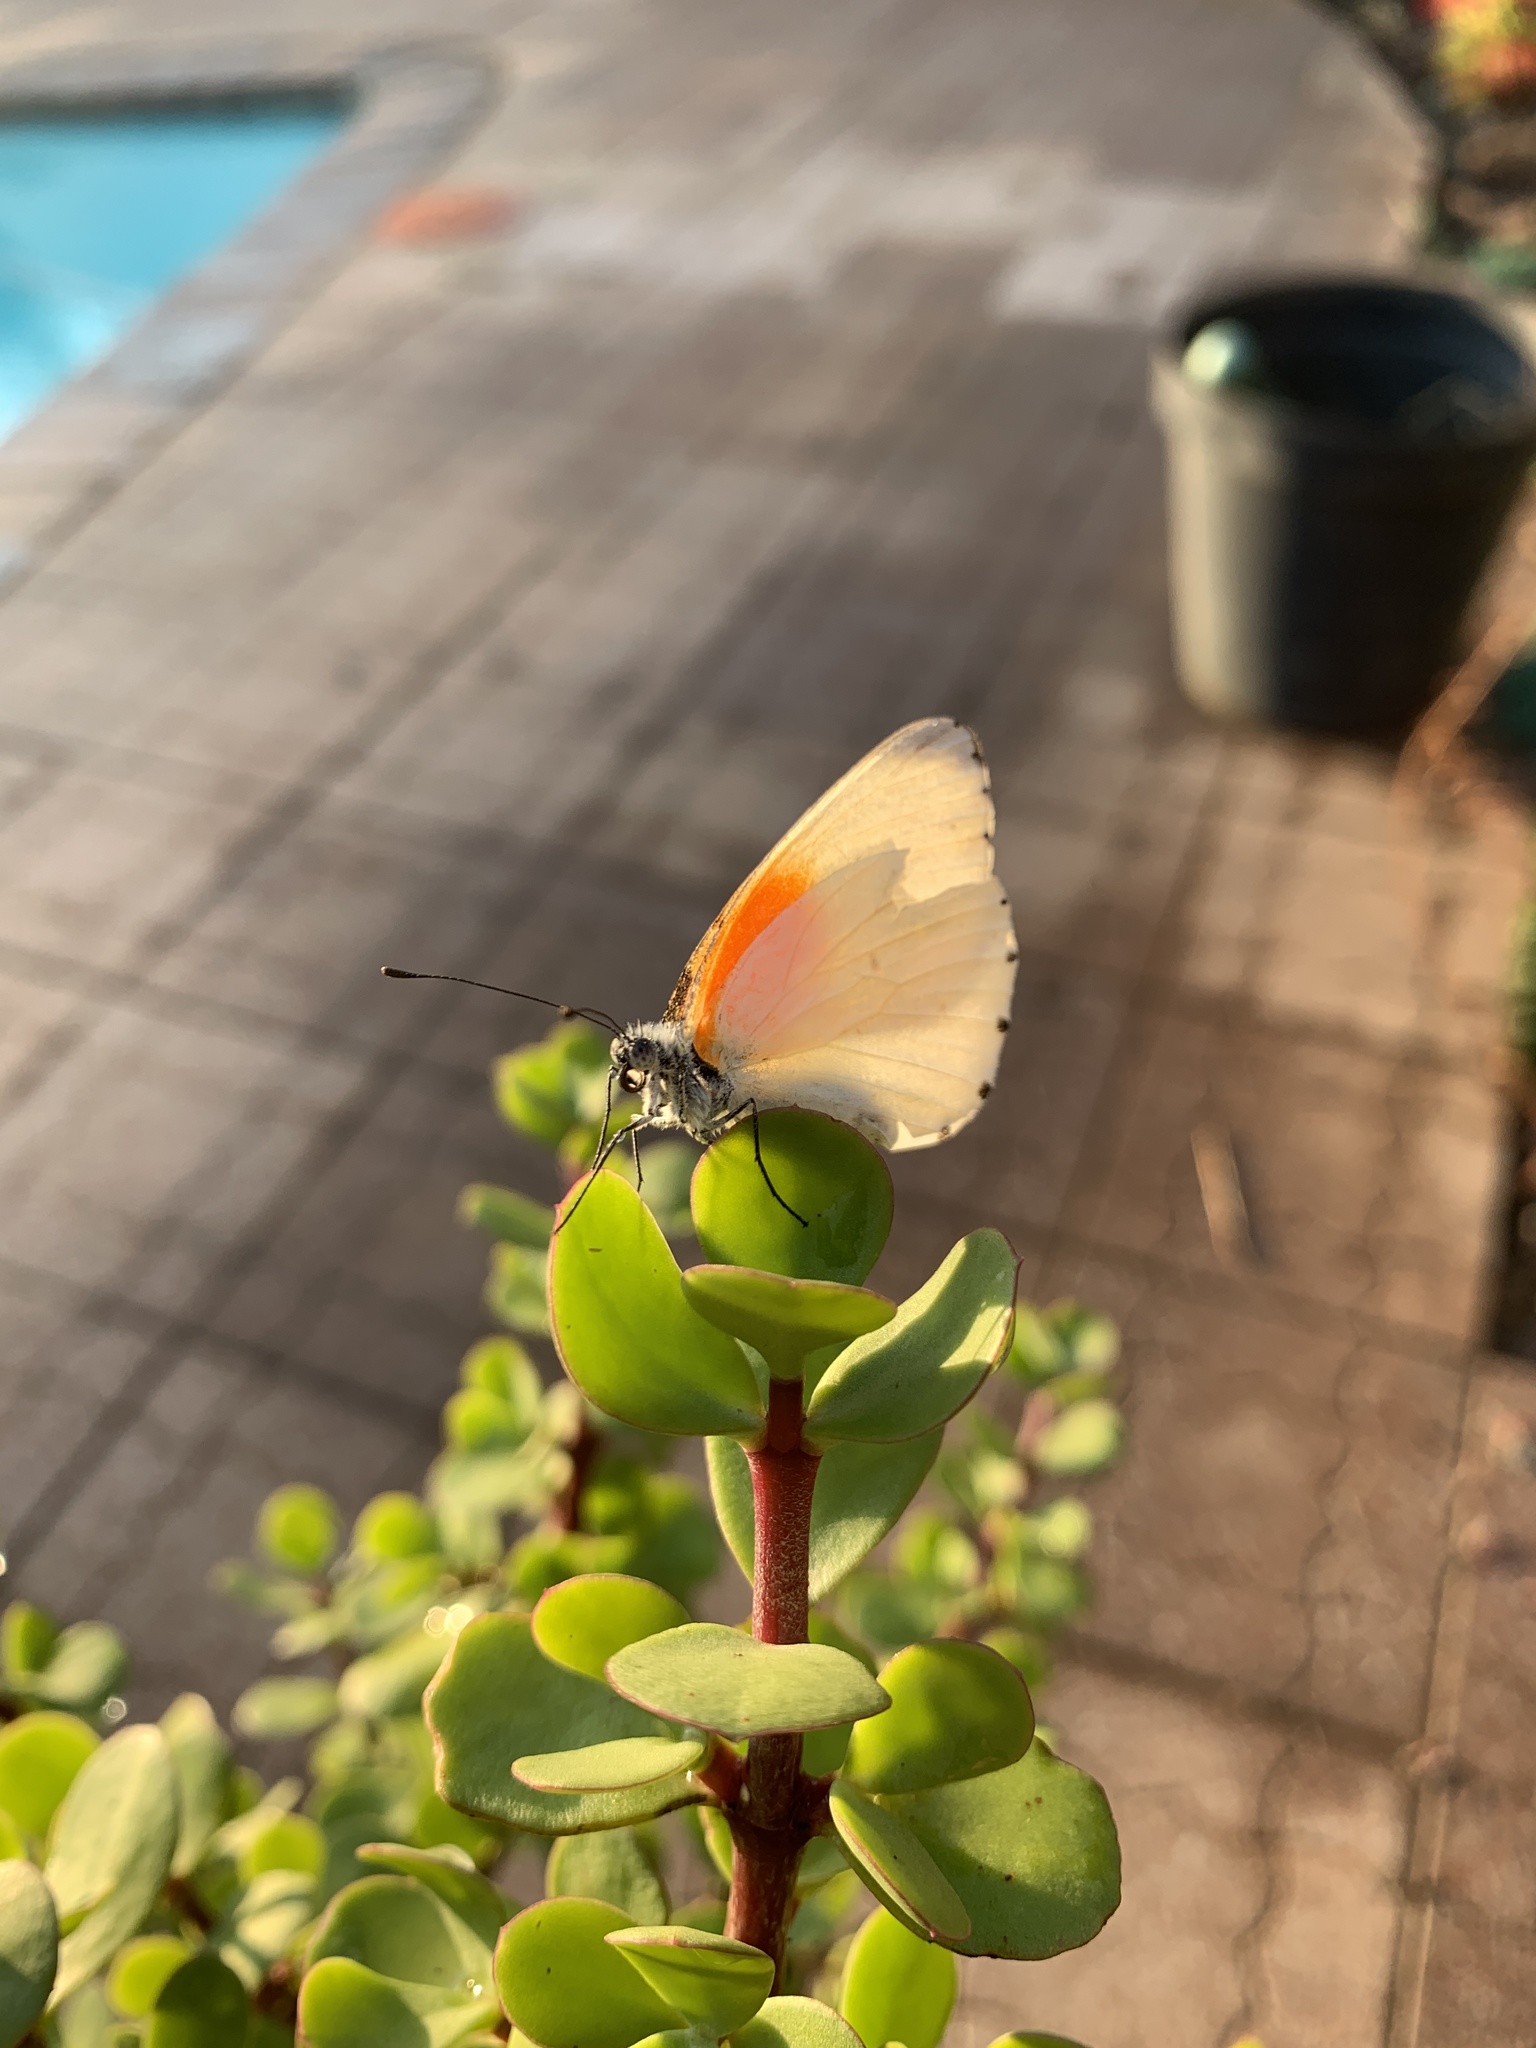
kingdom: Animalia
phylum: Arthropoda
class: Insecta
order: Lepidoptera
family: Pieridae
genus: Mylothris
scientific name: Mylothris rueppellii
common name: Twin dotted border
